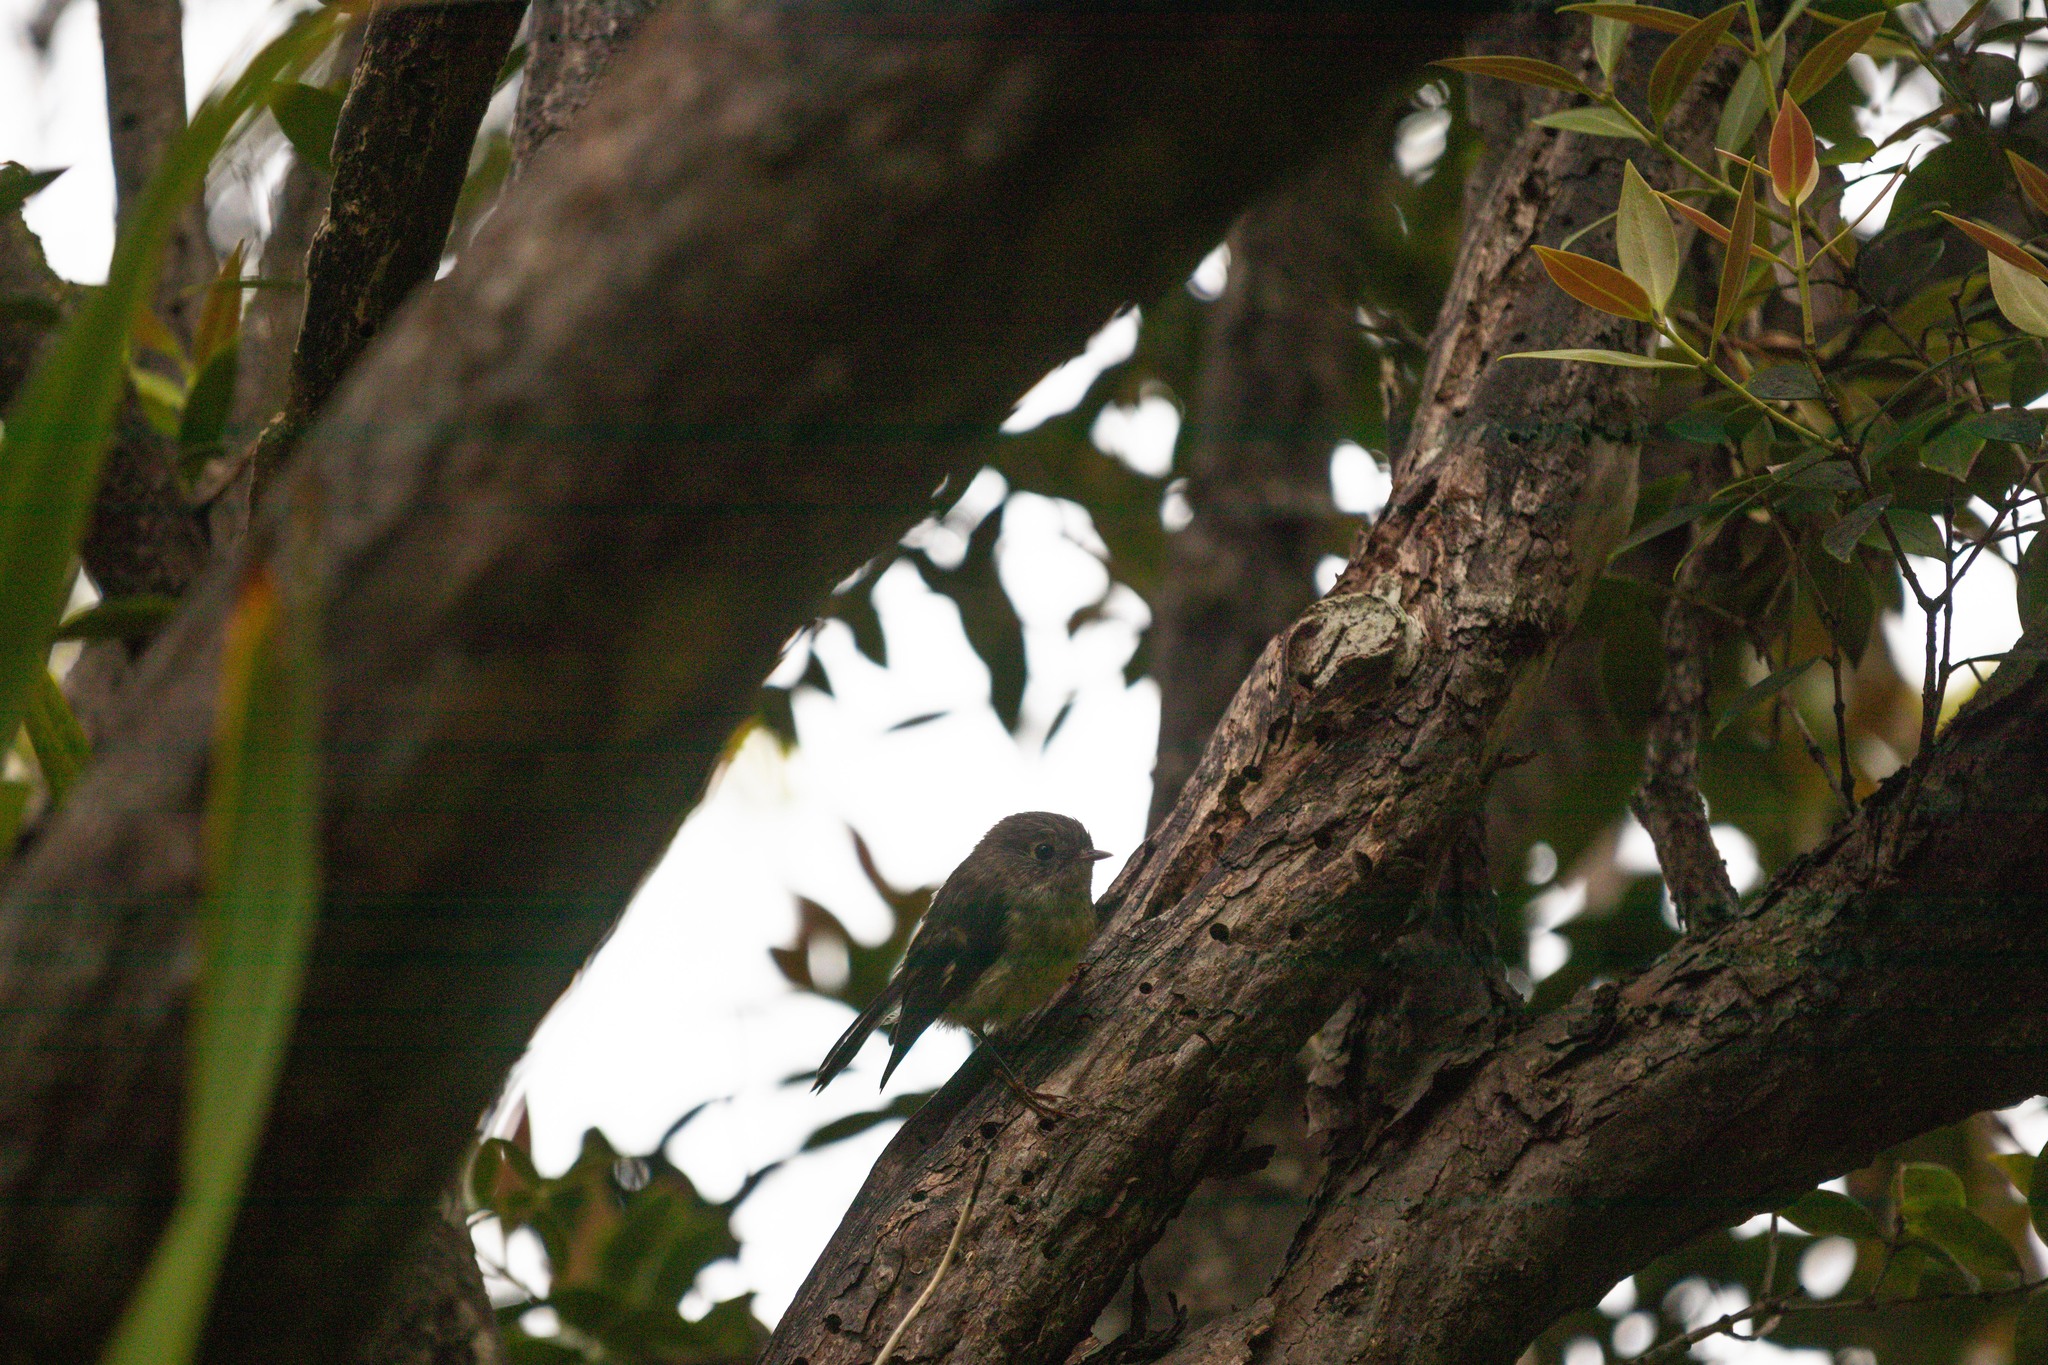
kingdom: Animalia
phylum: Chordata
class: Aves
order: Passeriformes
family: Petroicidae
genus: Petroica
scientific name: Petroica macrocephala
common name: Tomtit
